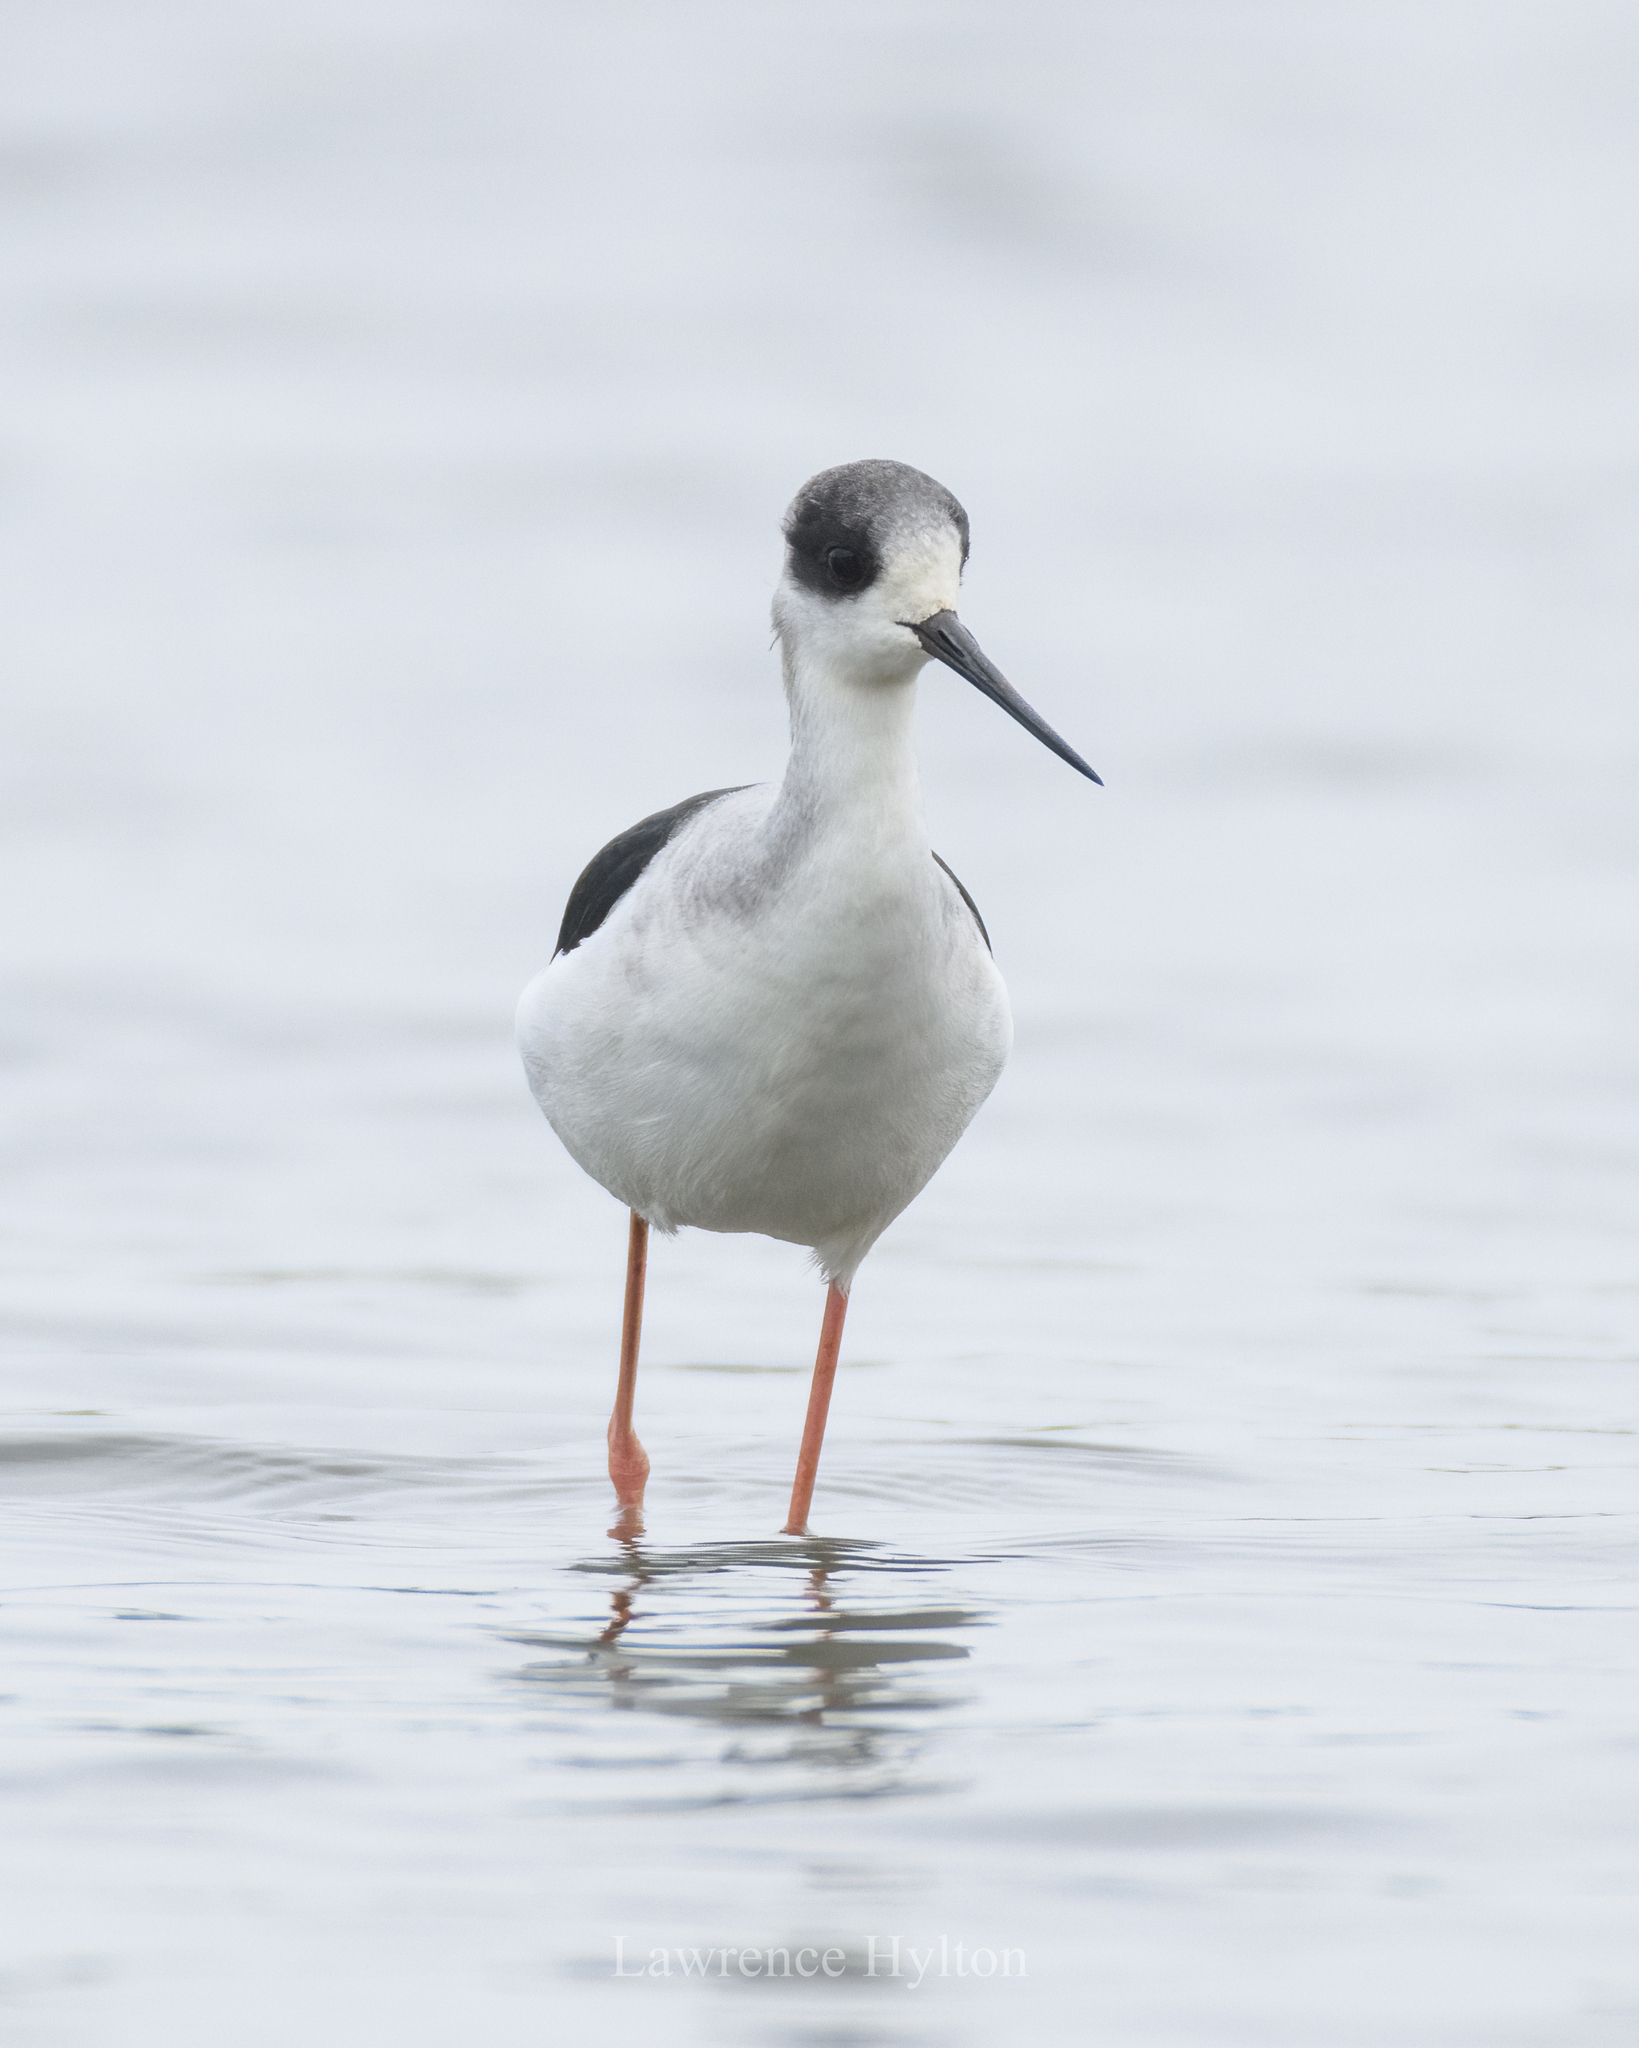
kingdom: Animalia
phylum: Chordata
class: Aves
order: Charadriiformes
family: Recurvirostridae
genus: Himantopus
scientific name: Himantopus himantopus
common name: Black-winged stilt
